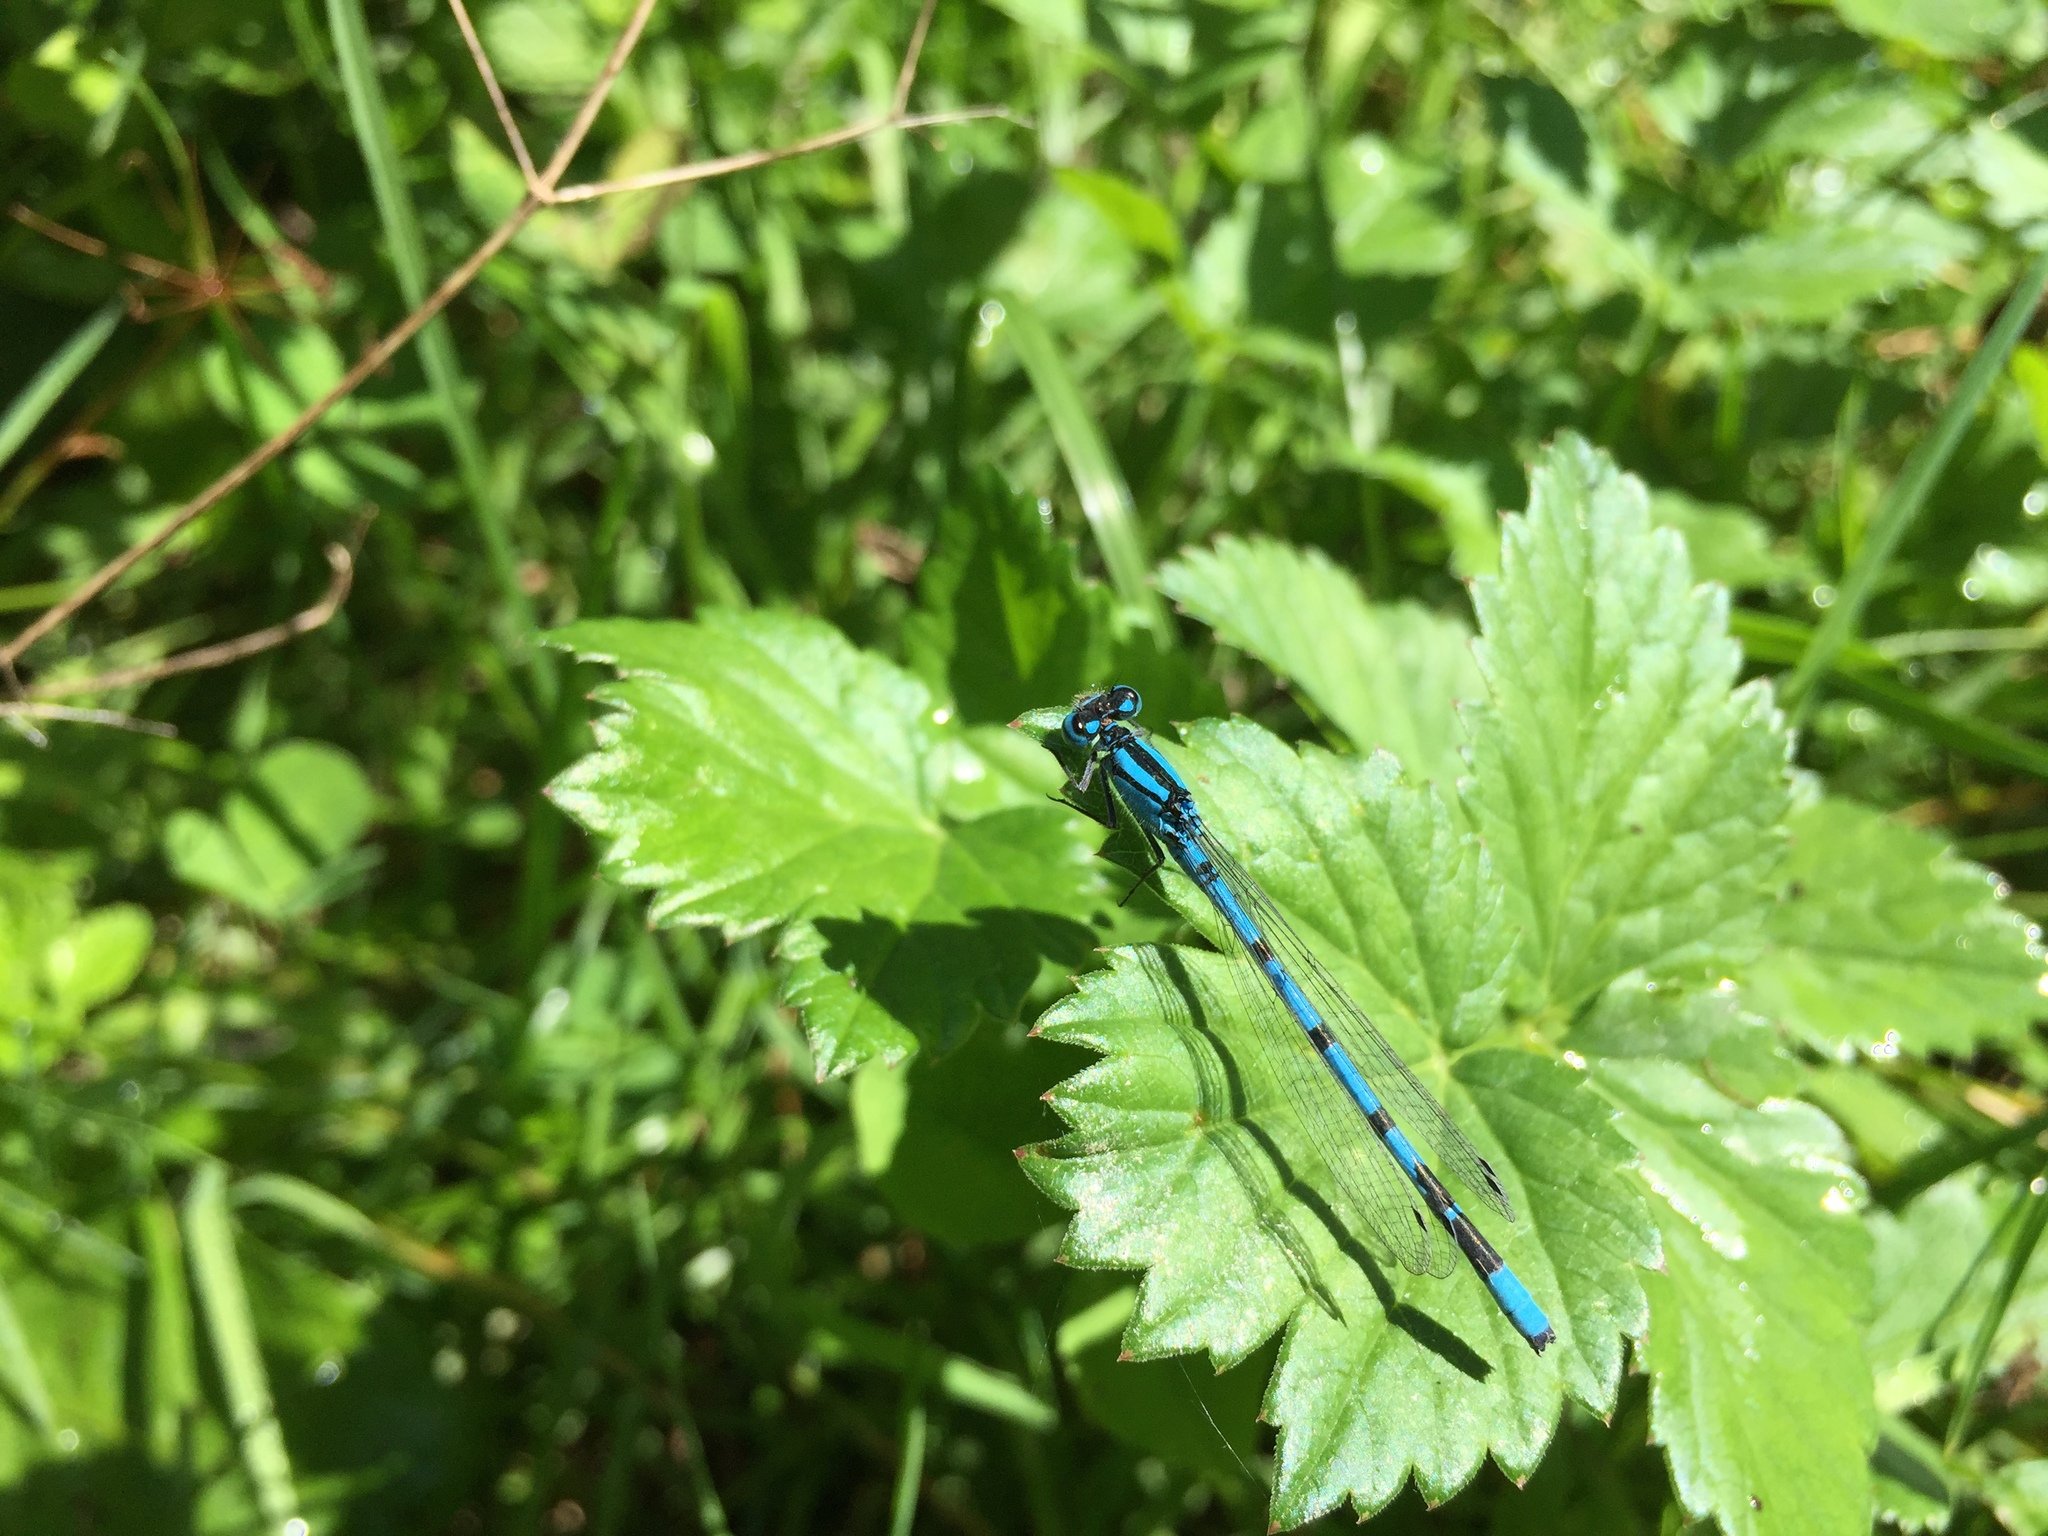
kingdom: Animalia
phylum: Arthropoda
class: Insecta
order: Odonata
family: Coenagrionidae
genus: Enallagma
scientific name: Enallagma cyathigerum
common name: Common blue damselfly
